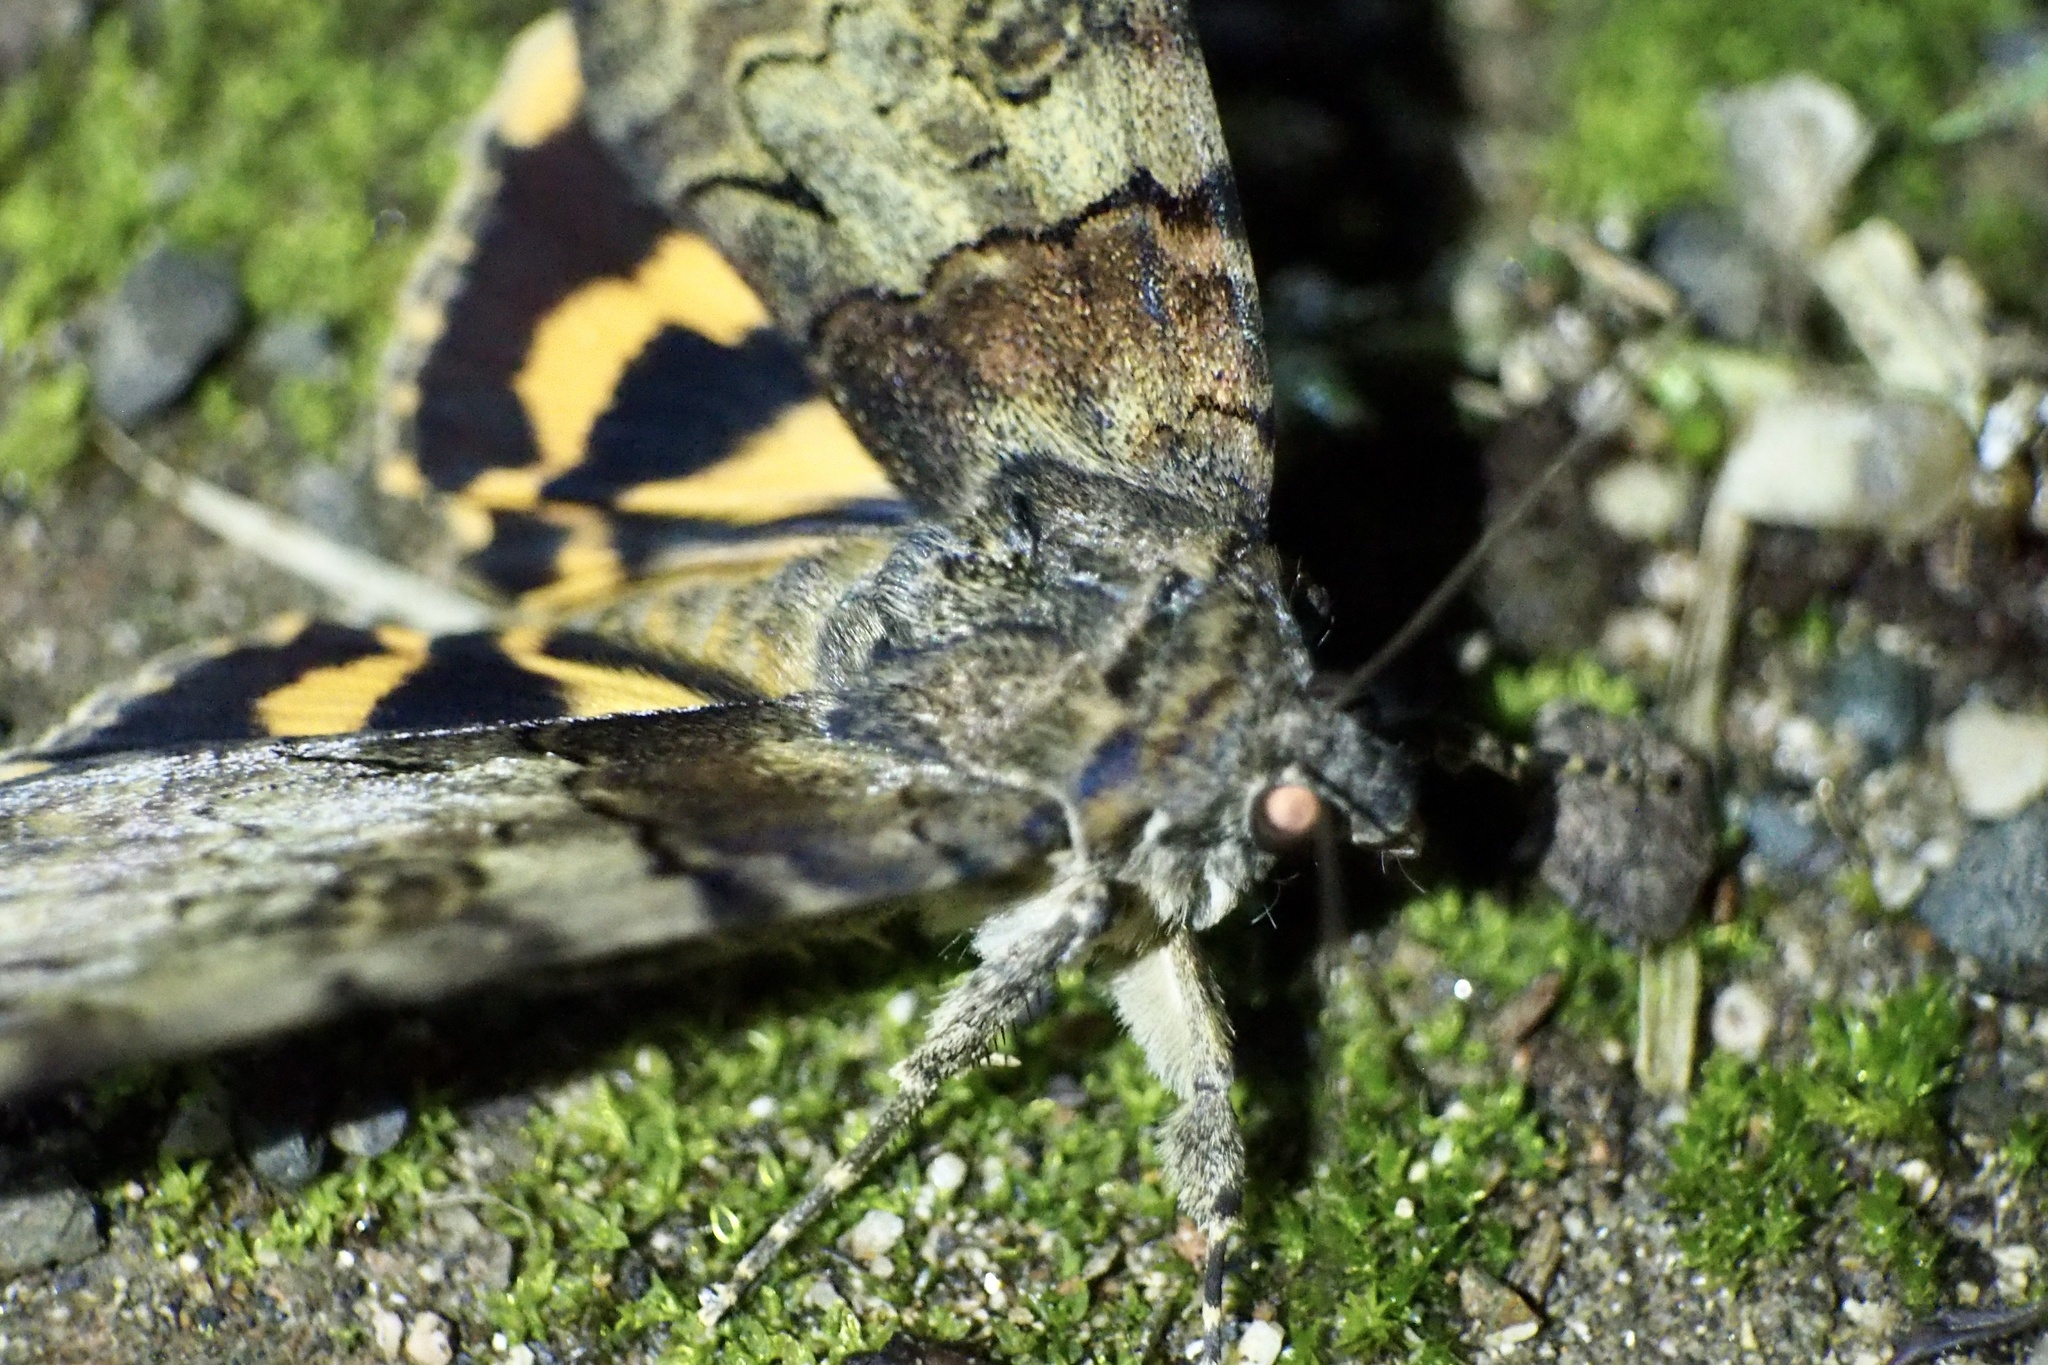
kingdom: Animalia
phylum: Arthropoda
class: Insecta
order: Lepidoptera
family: Erebidae
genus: Catocala
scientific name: Catocala patala
